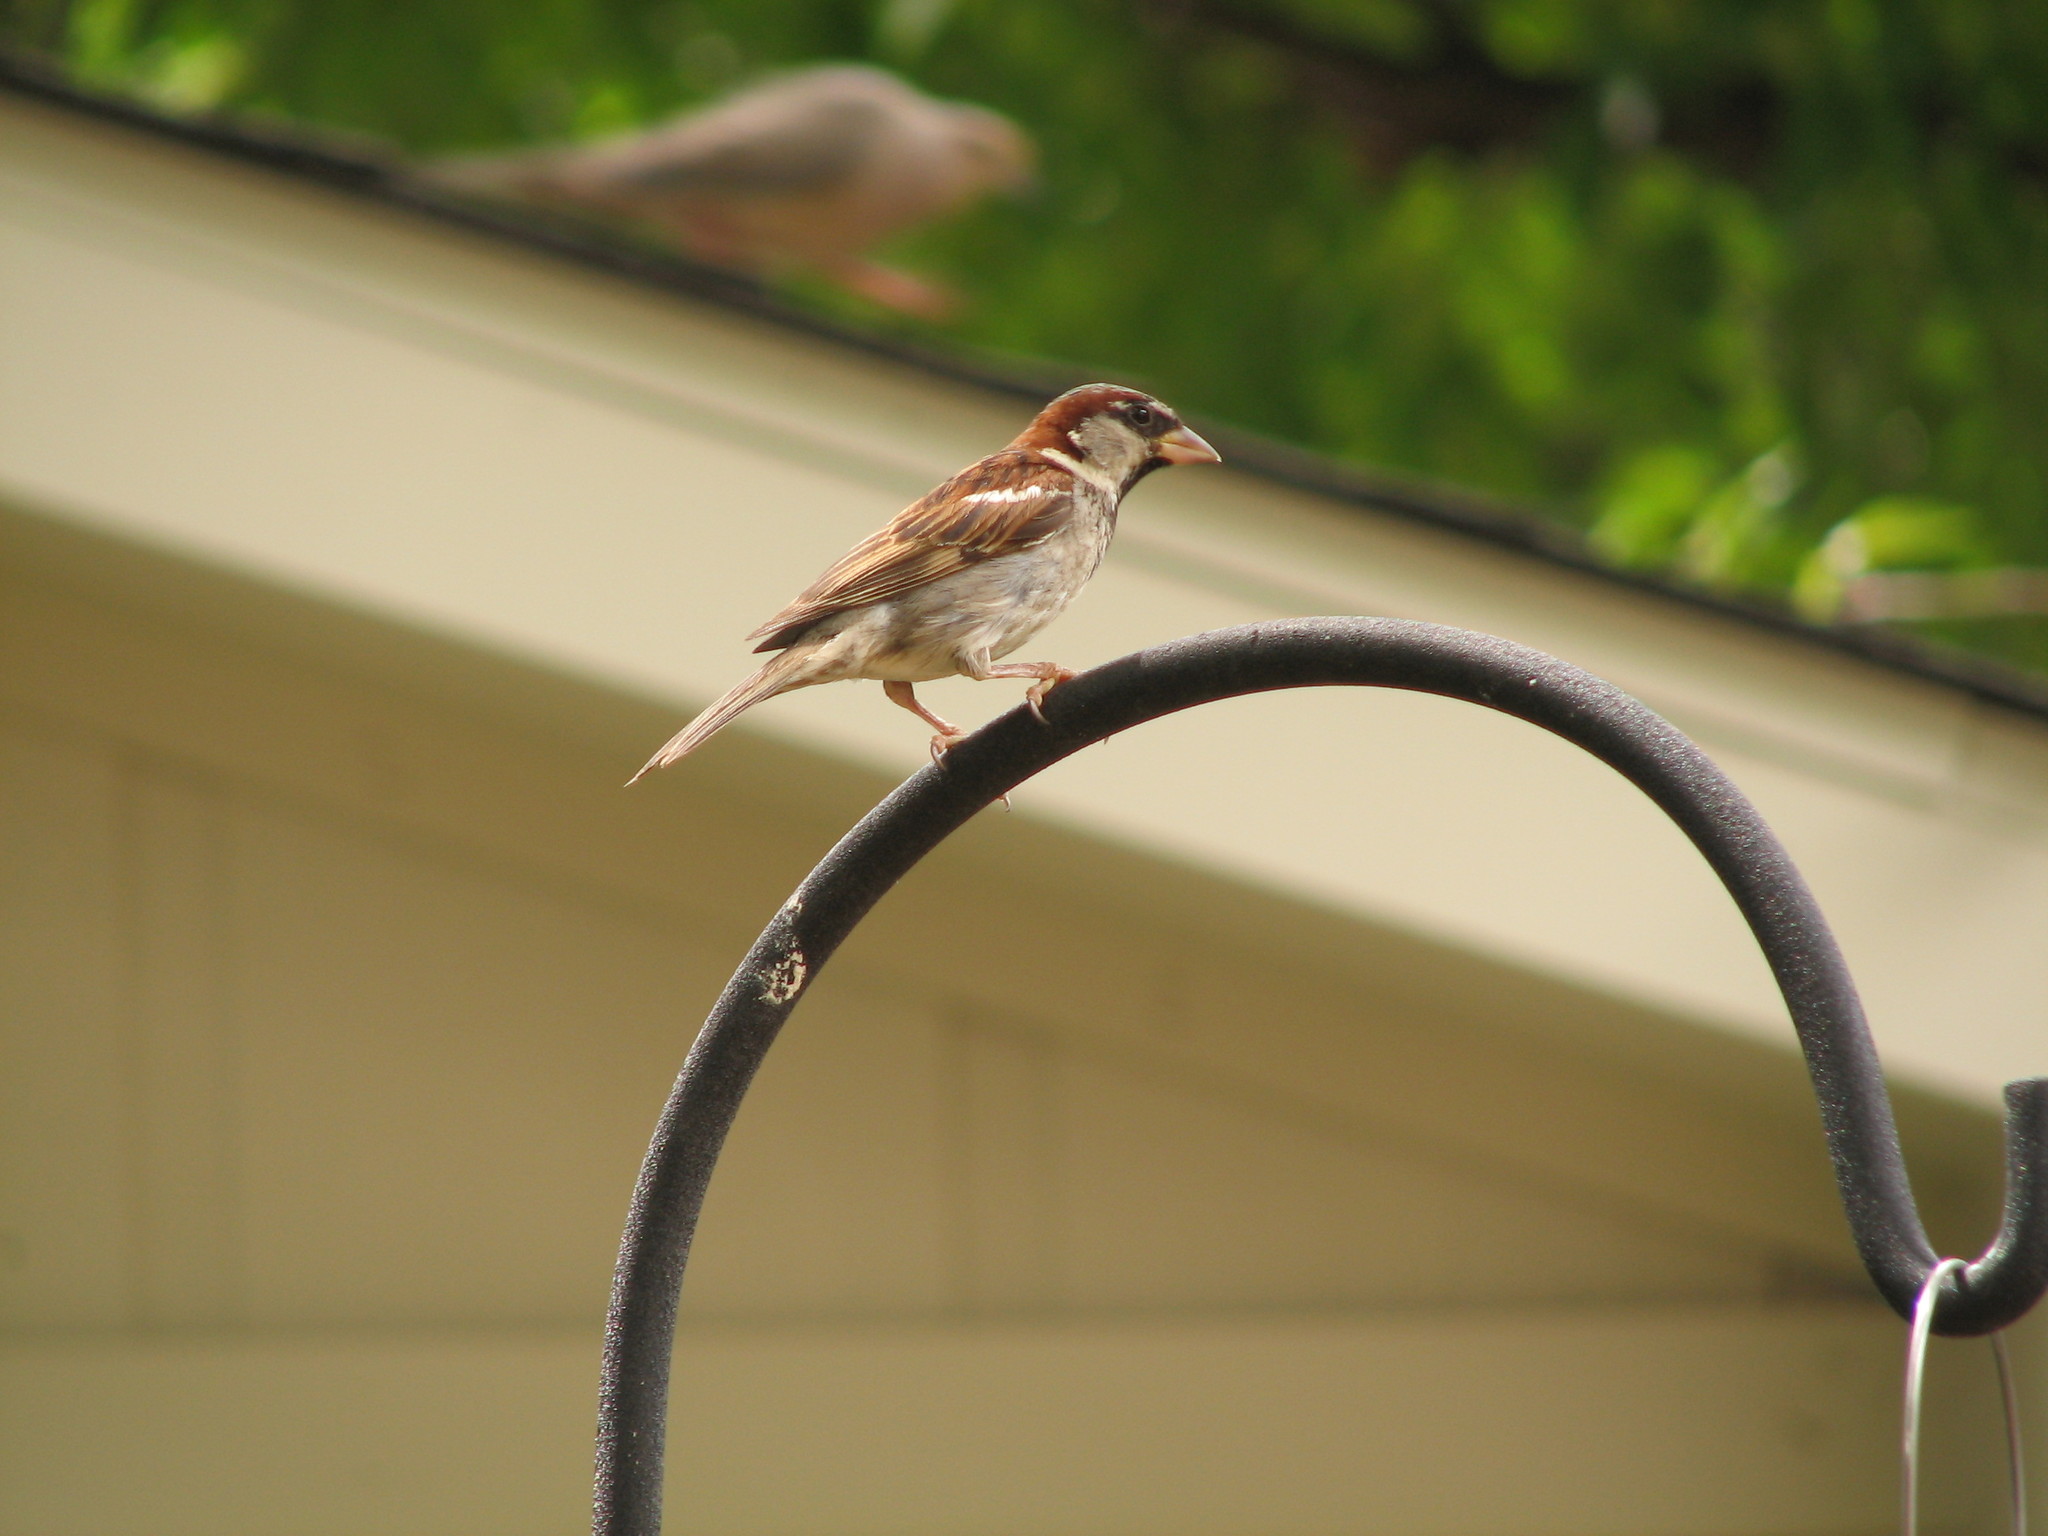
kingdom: Animalia
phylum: Chordata
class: Aves
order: Passeriformes
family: Passeridae
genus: Passer
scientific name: Passer domesticus
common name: House sparrow
